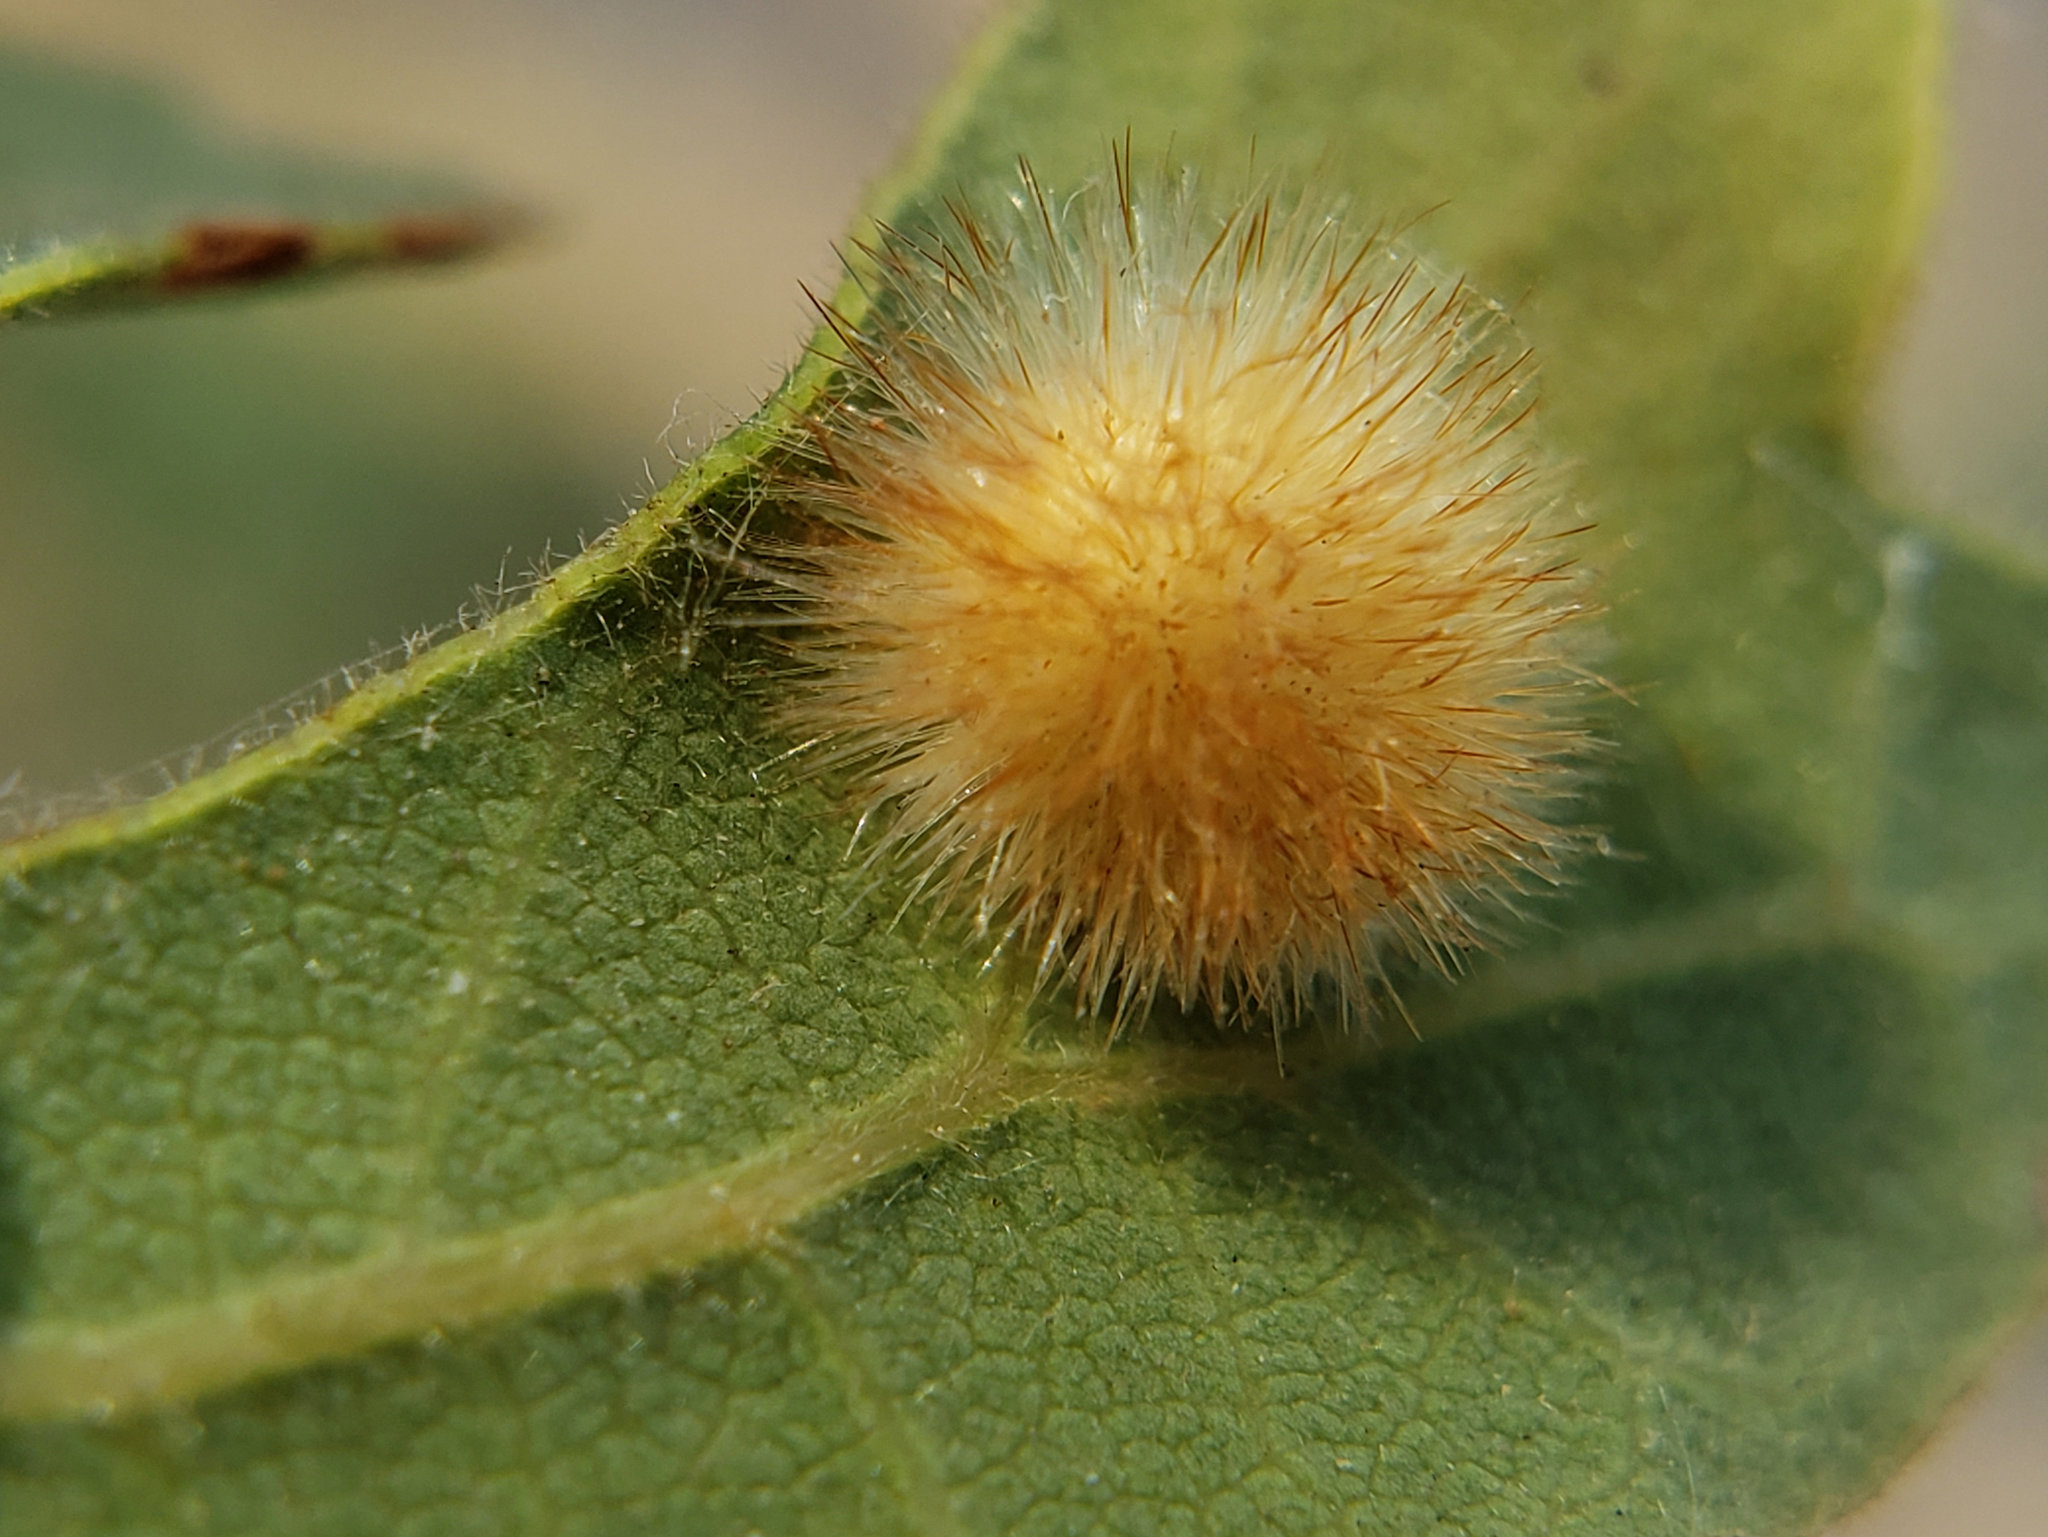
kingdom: Animalia
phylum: Arthropoda
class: Insecta
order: Hymenoptera
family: Cynipidae
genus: Atrusca
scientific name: Atrusca
